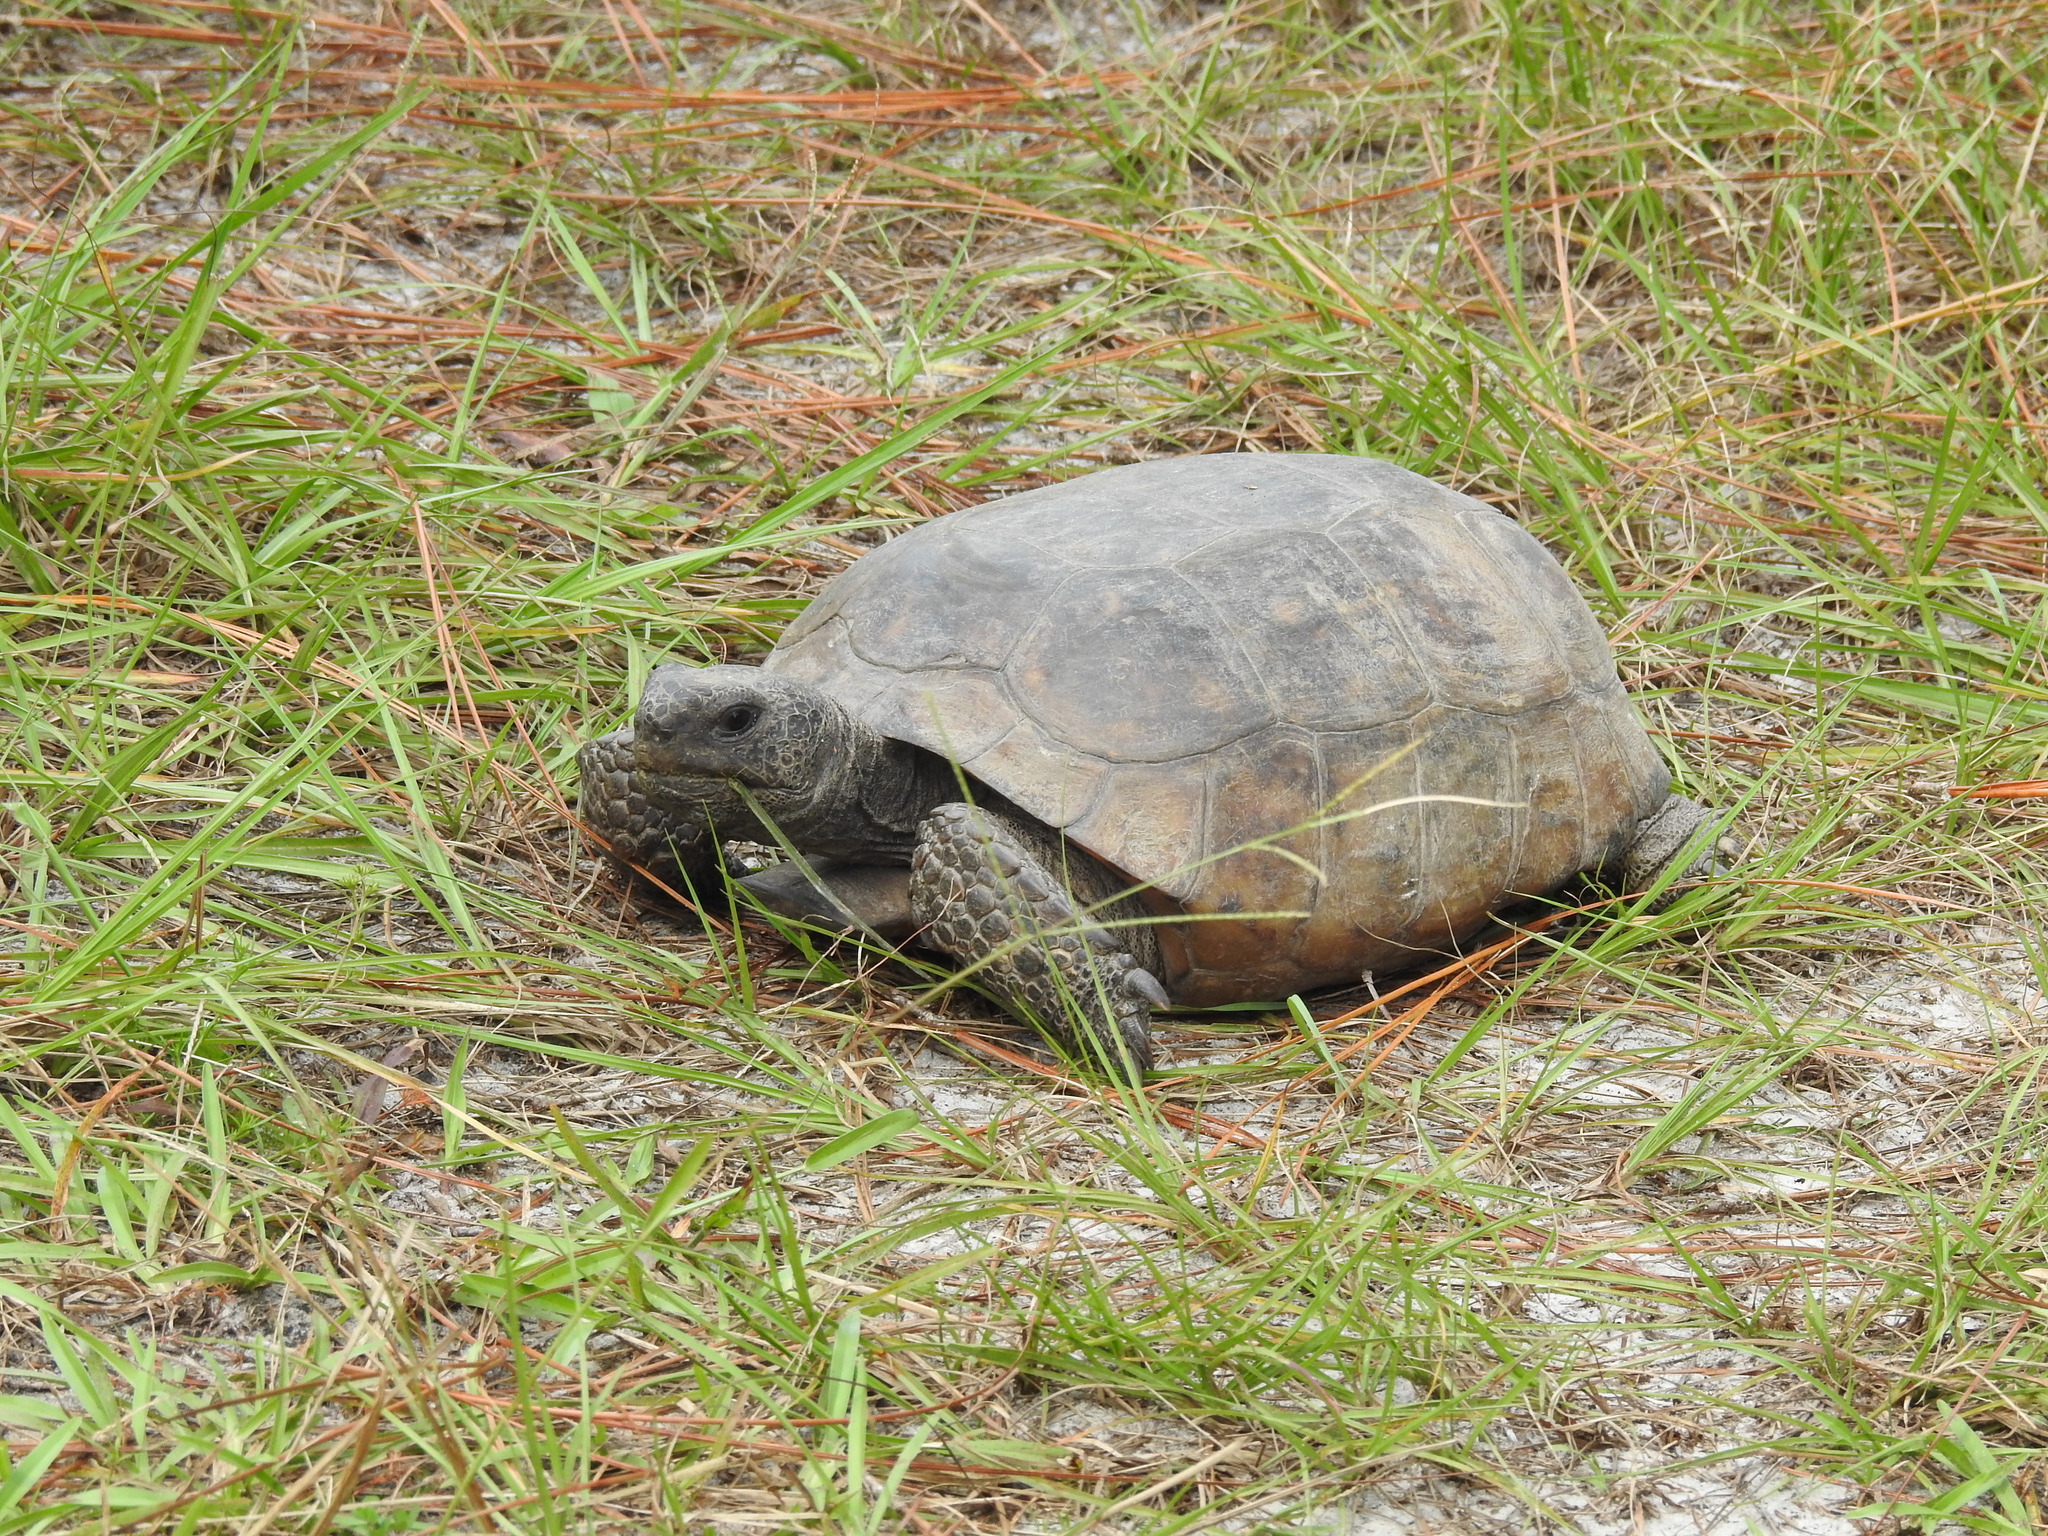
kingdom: Animalia
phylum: Chordata
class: Testudines
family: Testudinidae
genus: Gopherus
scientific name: Gopherus polyphemus
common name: Florida gopher tortoise
